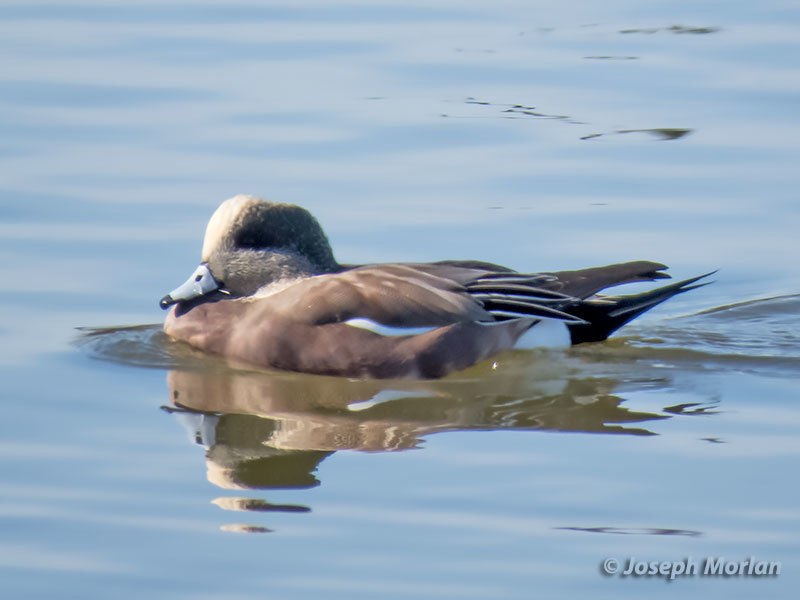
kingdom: Animalia
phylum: Chordata
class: Aves
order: Anseriformes
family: Anatidae
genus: Mareca
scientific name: Mareca americana
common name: American wigeon
